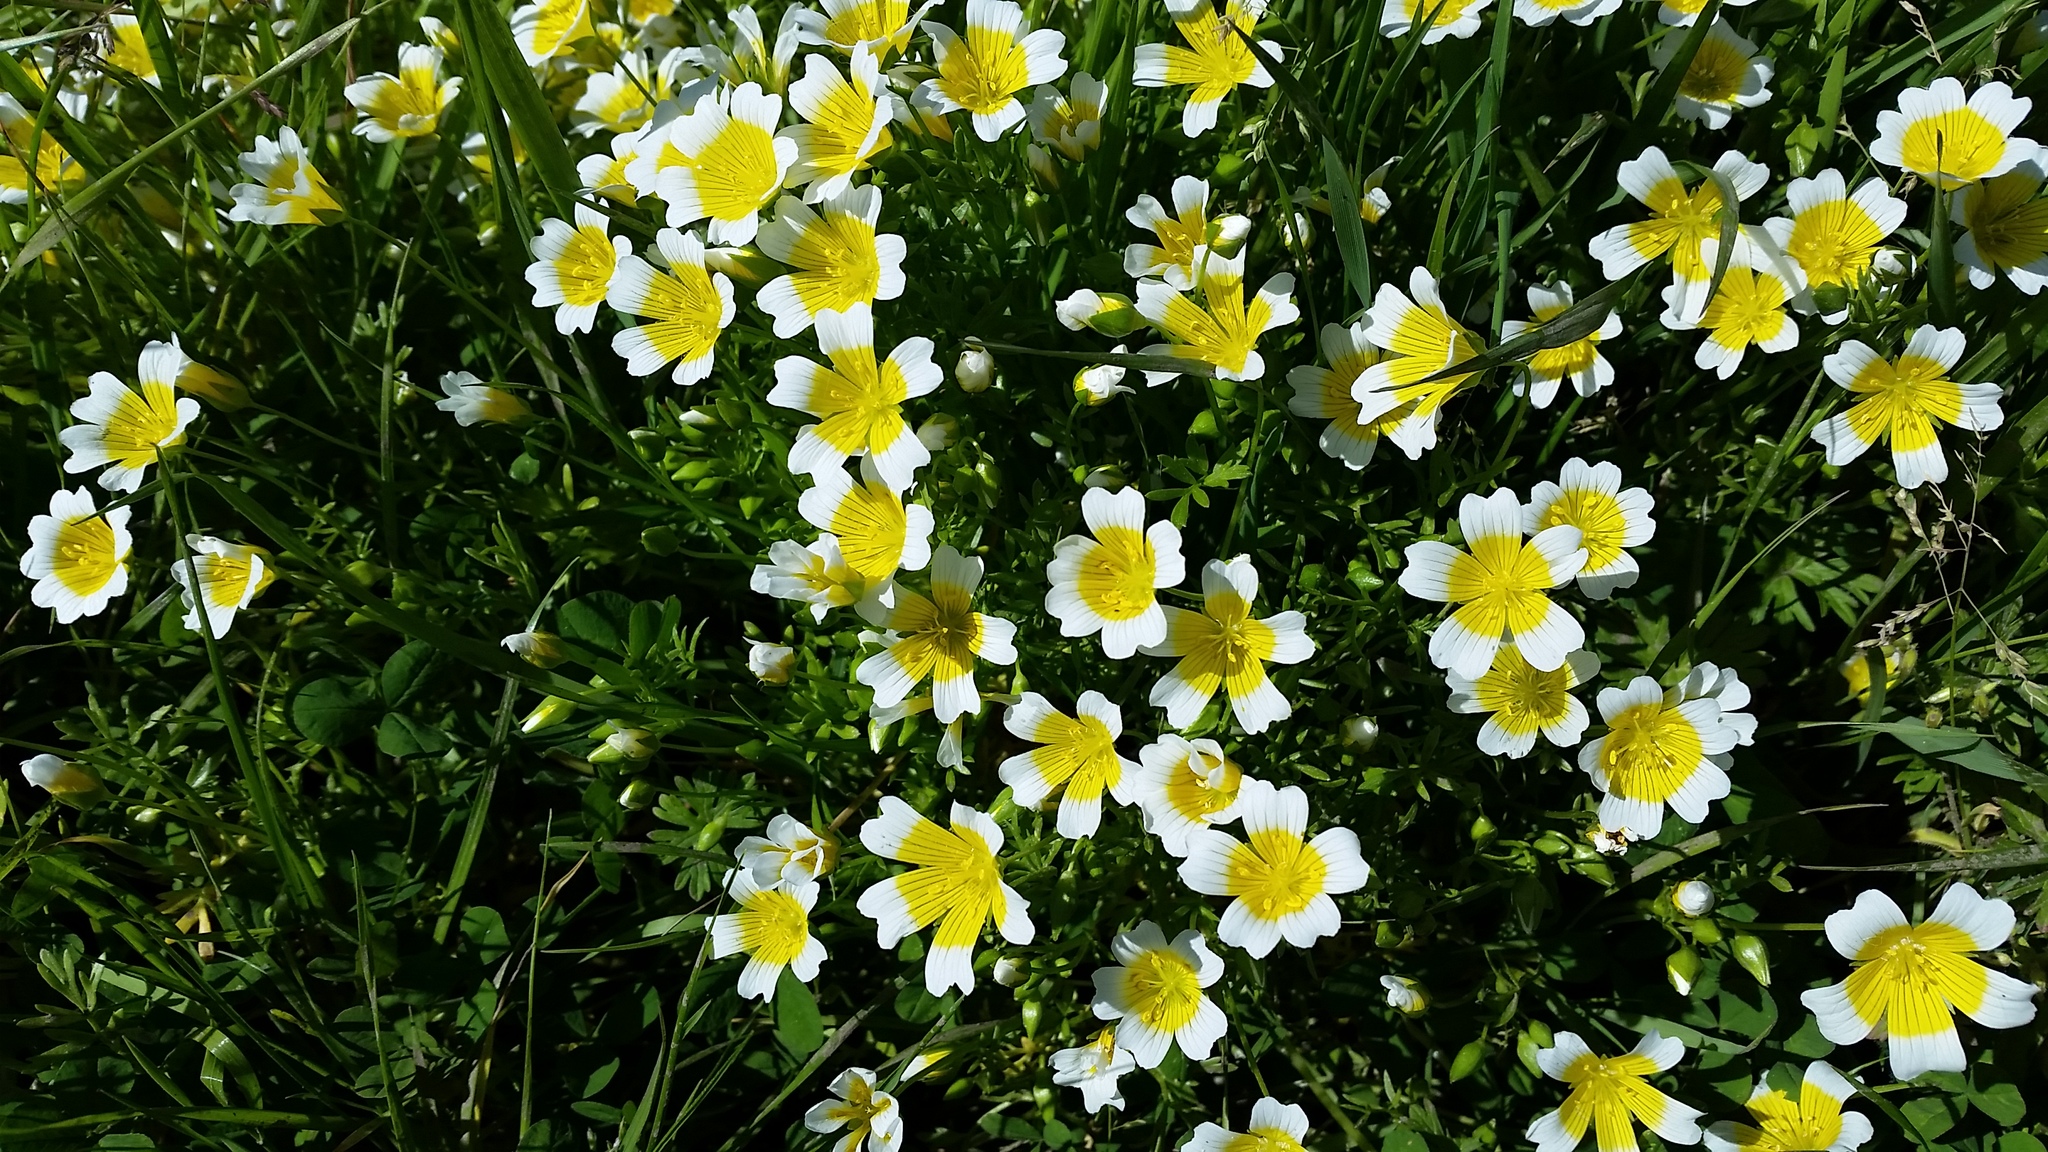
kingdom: Plantae
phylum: Tracheophyta
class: Magnoliopsida
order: Brassicales
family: Limnanthaceae
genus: Limnanthes
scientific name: Limnanthes douglasii
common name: Meadow-foam
